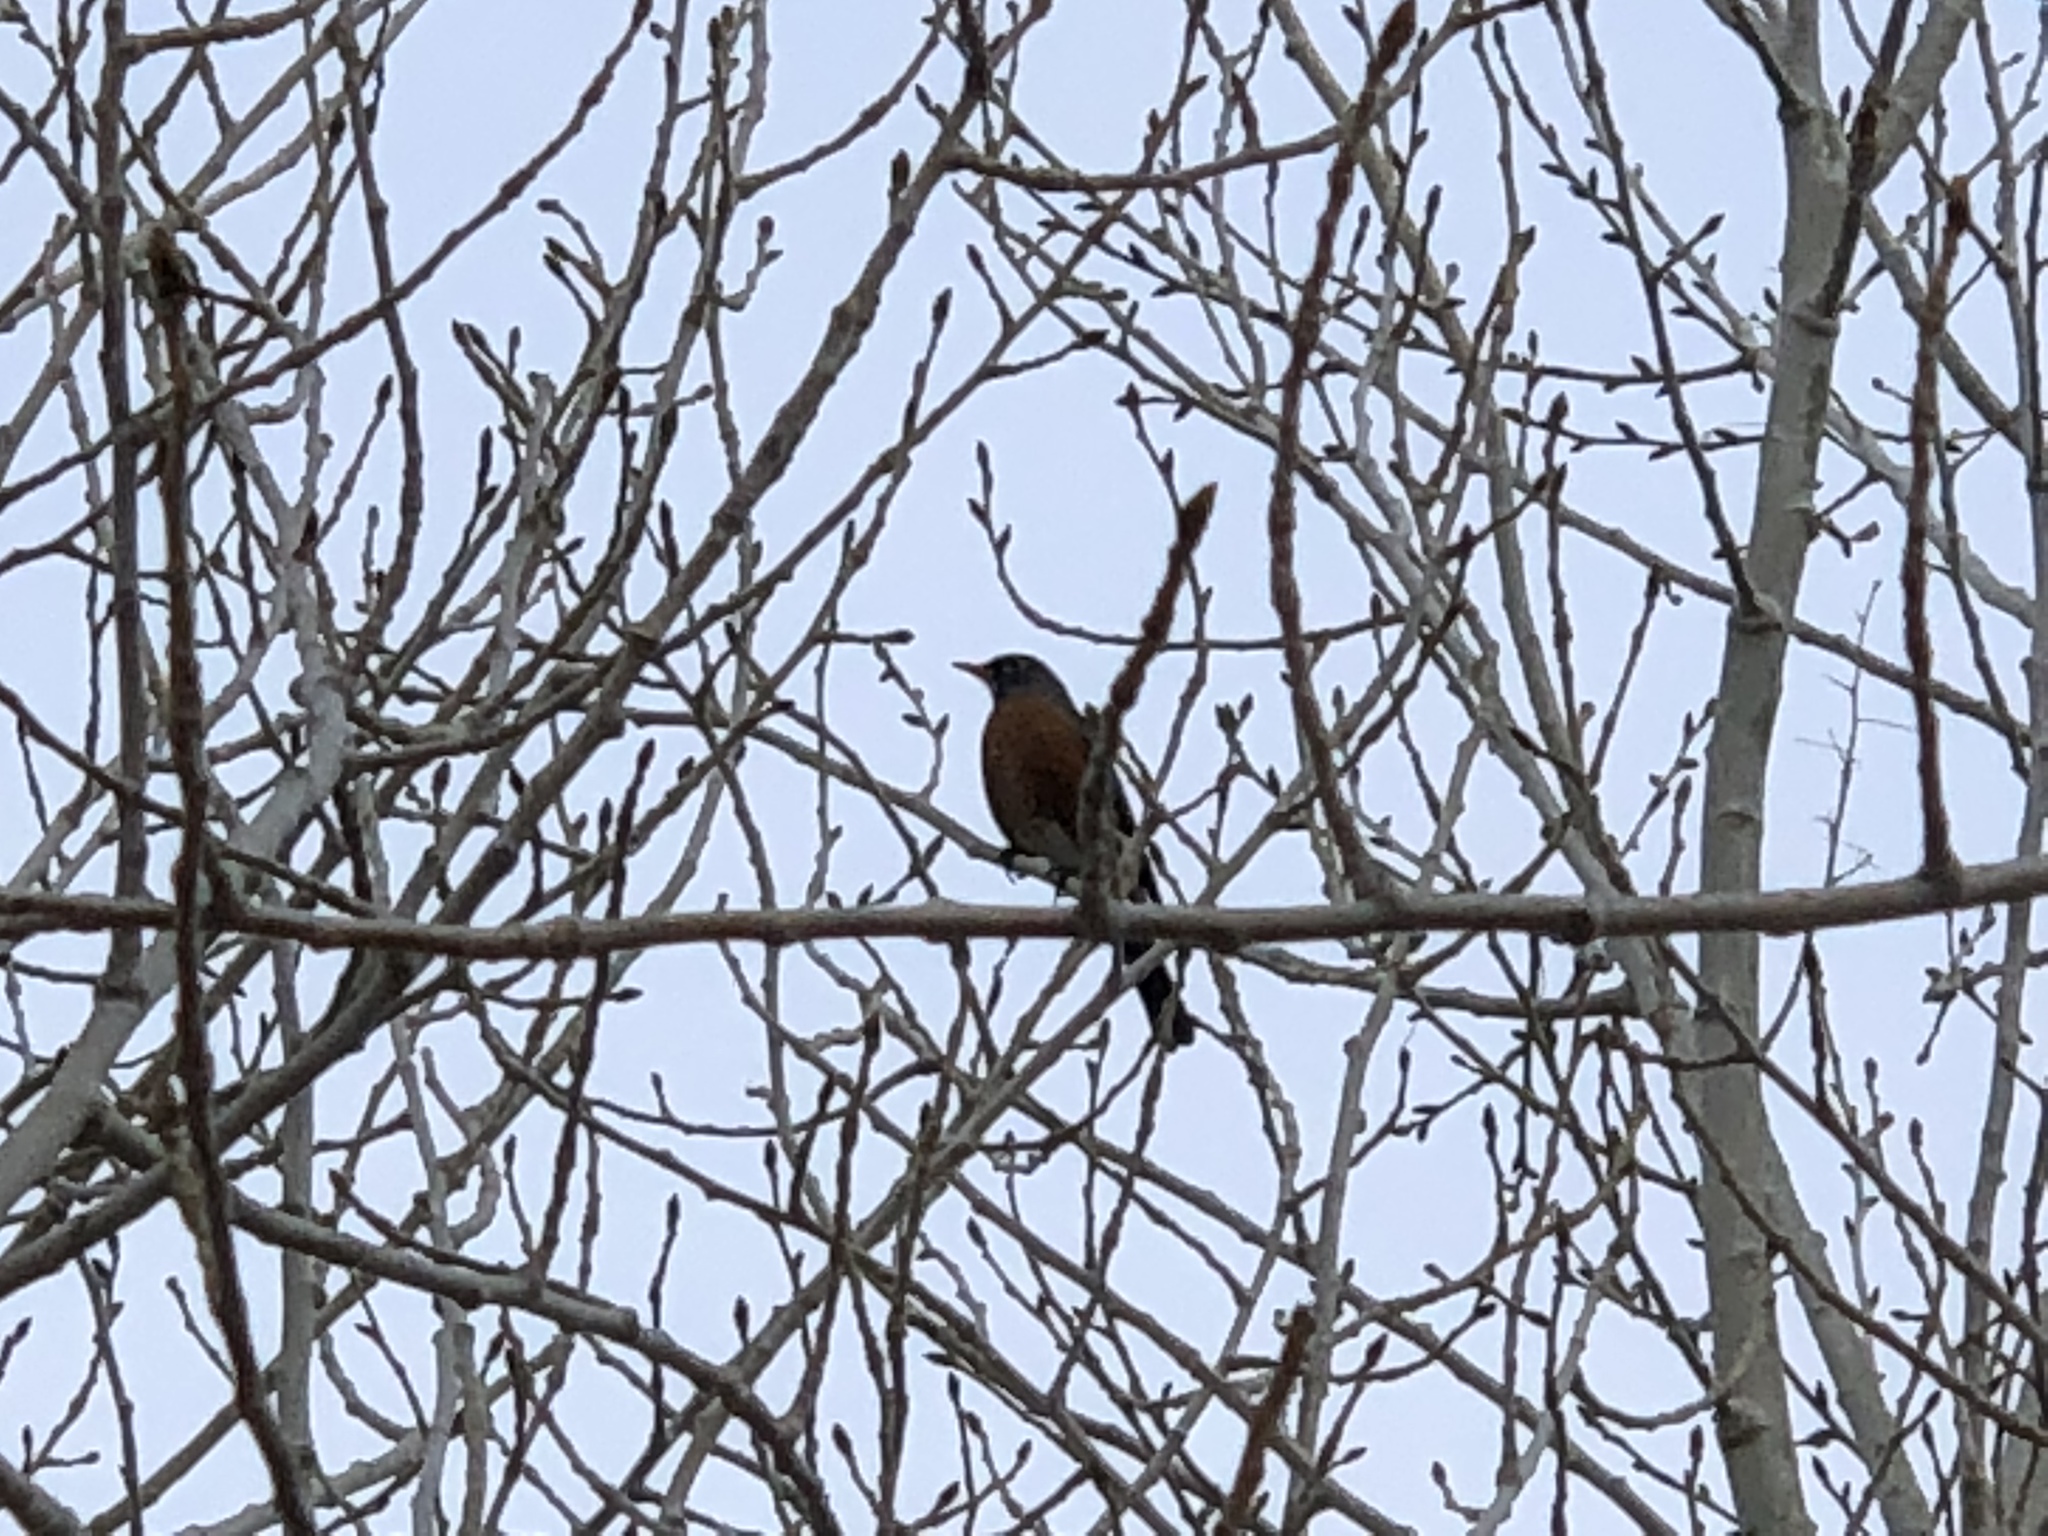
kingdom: Animalia
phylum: Chordata
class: Aves
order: Passeriformes
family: Turdidae
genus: Turdus
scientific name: Turdus migratorius
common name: American robin
